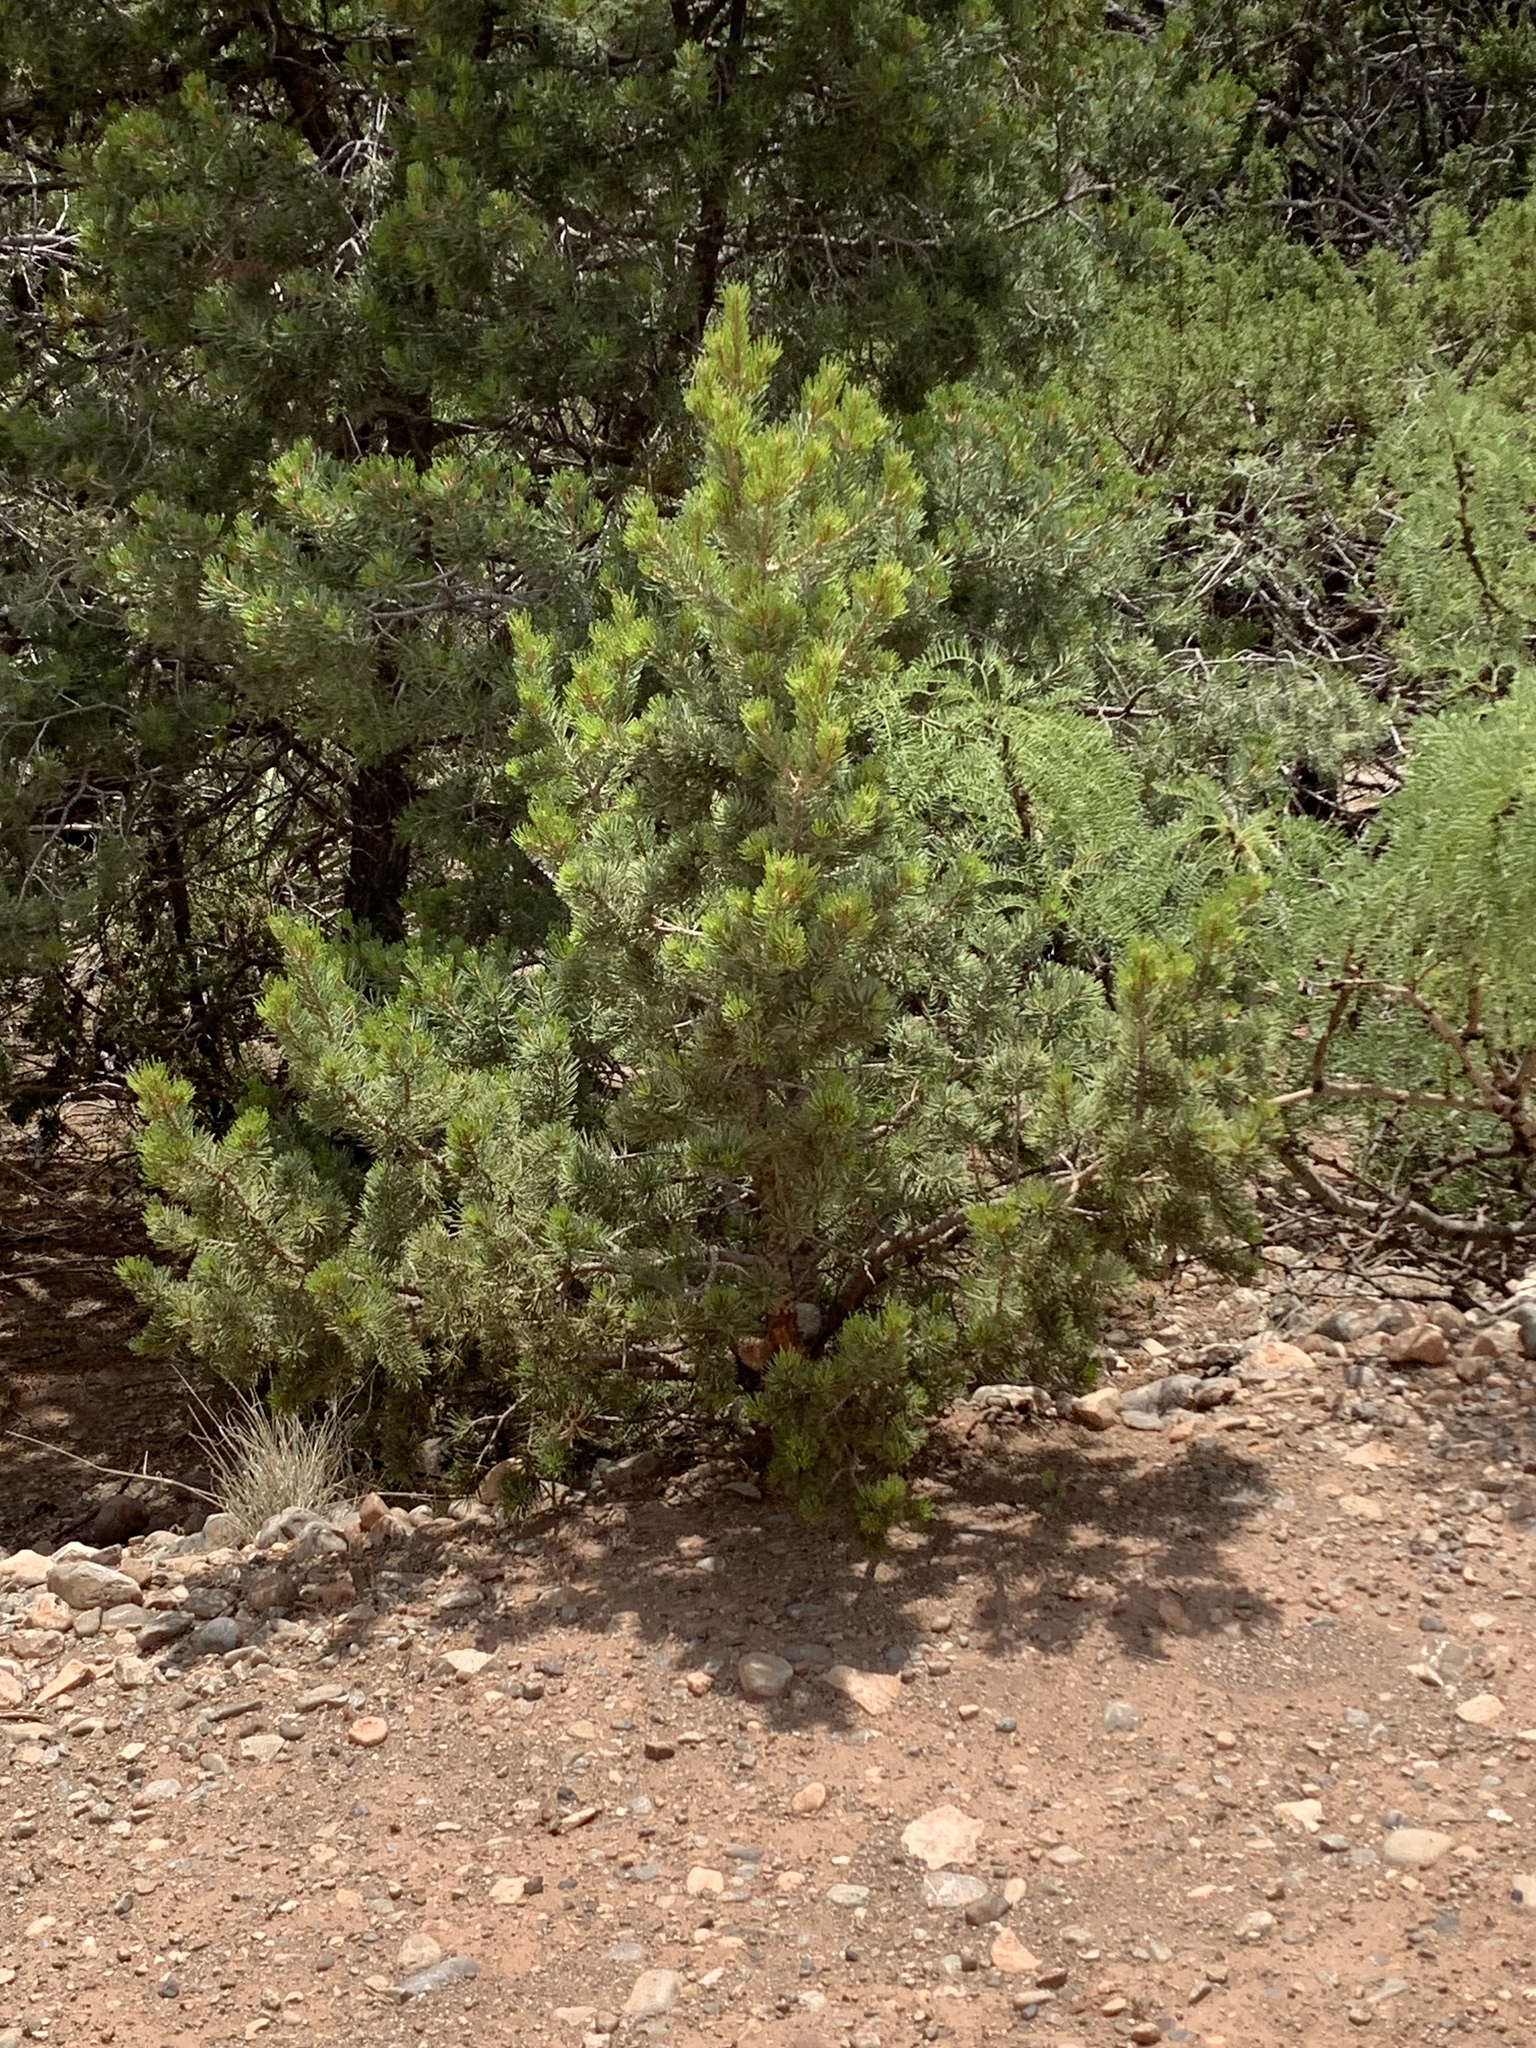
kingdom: Plantae
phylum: Tracheophyta
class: Pinopsida
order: Pinales
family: Pinaceae
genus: Pinus
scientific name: Pinus edulis
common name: Colorado pinyon
